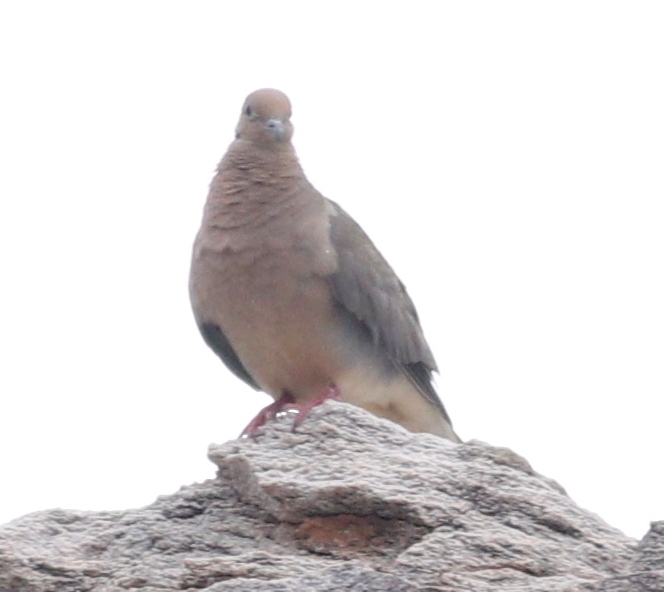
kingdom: Animalia
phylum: Chordata
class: Aves
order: Columbiformes
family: Columbidae
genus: Zenaida
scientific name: Zenaida macroura
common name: Mourning dove
